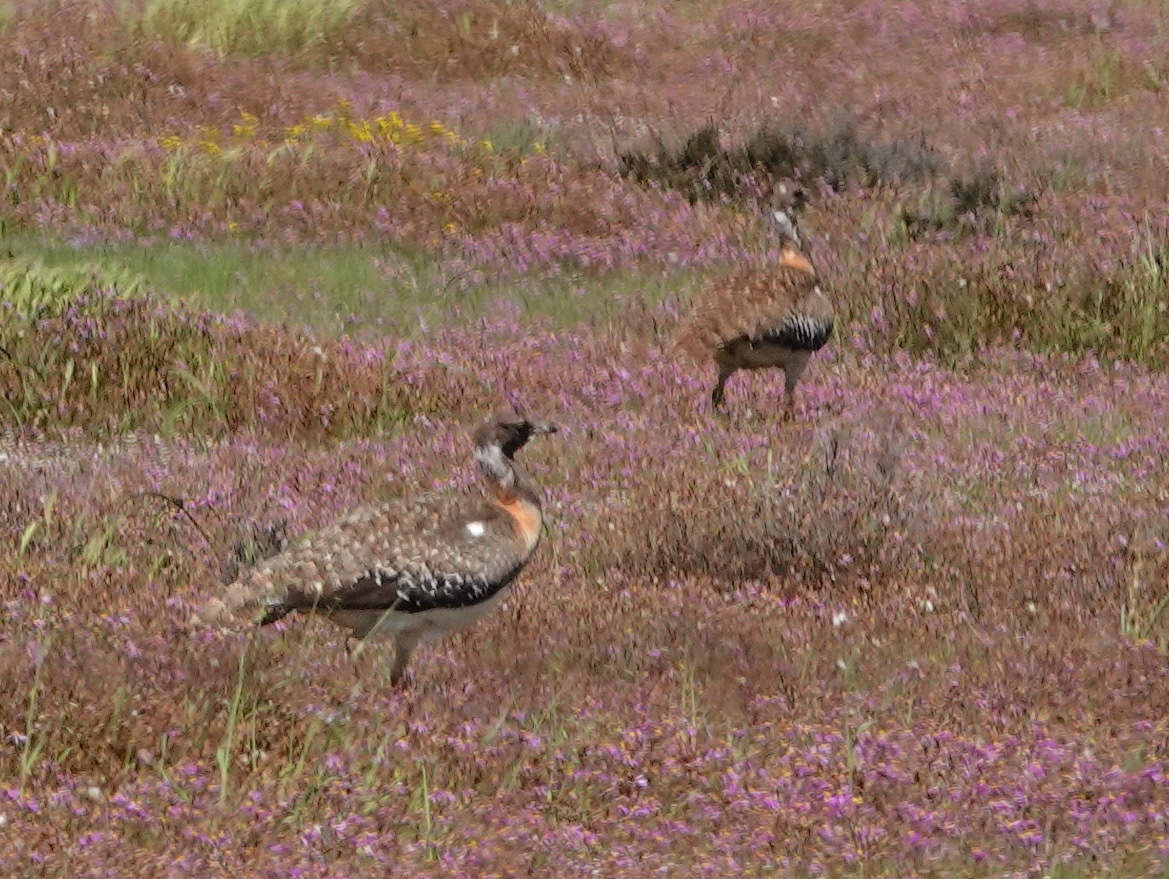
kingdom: Animalia
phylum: Chordata
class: Aves
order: Otidiformes
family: Otididae
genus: Neotis
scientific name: Neotis ludwigii
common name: Ludwig's bustard
